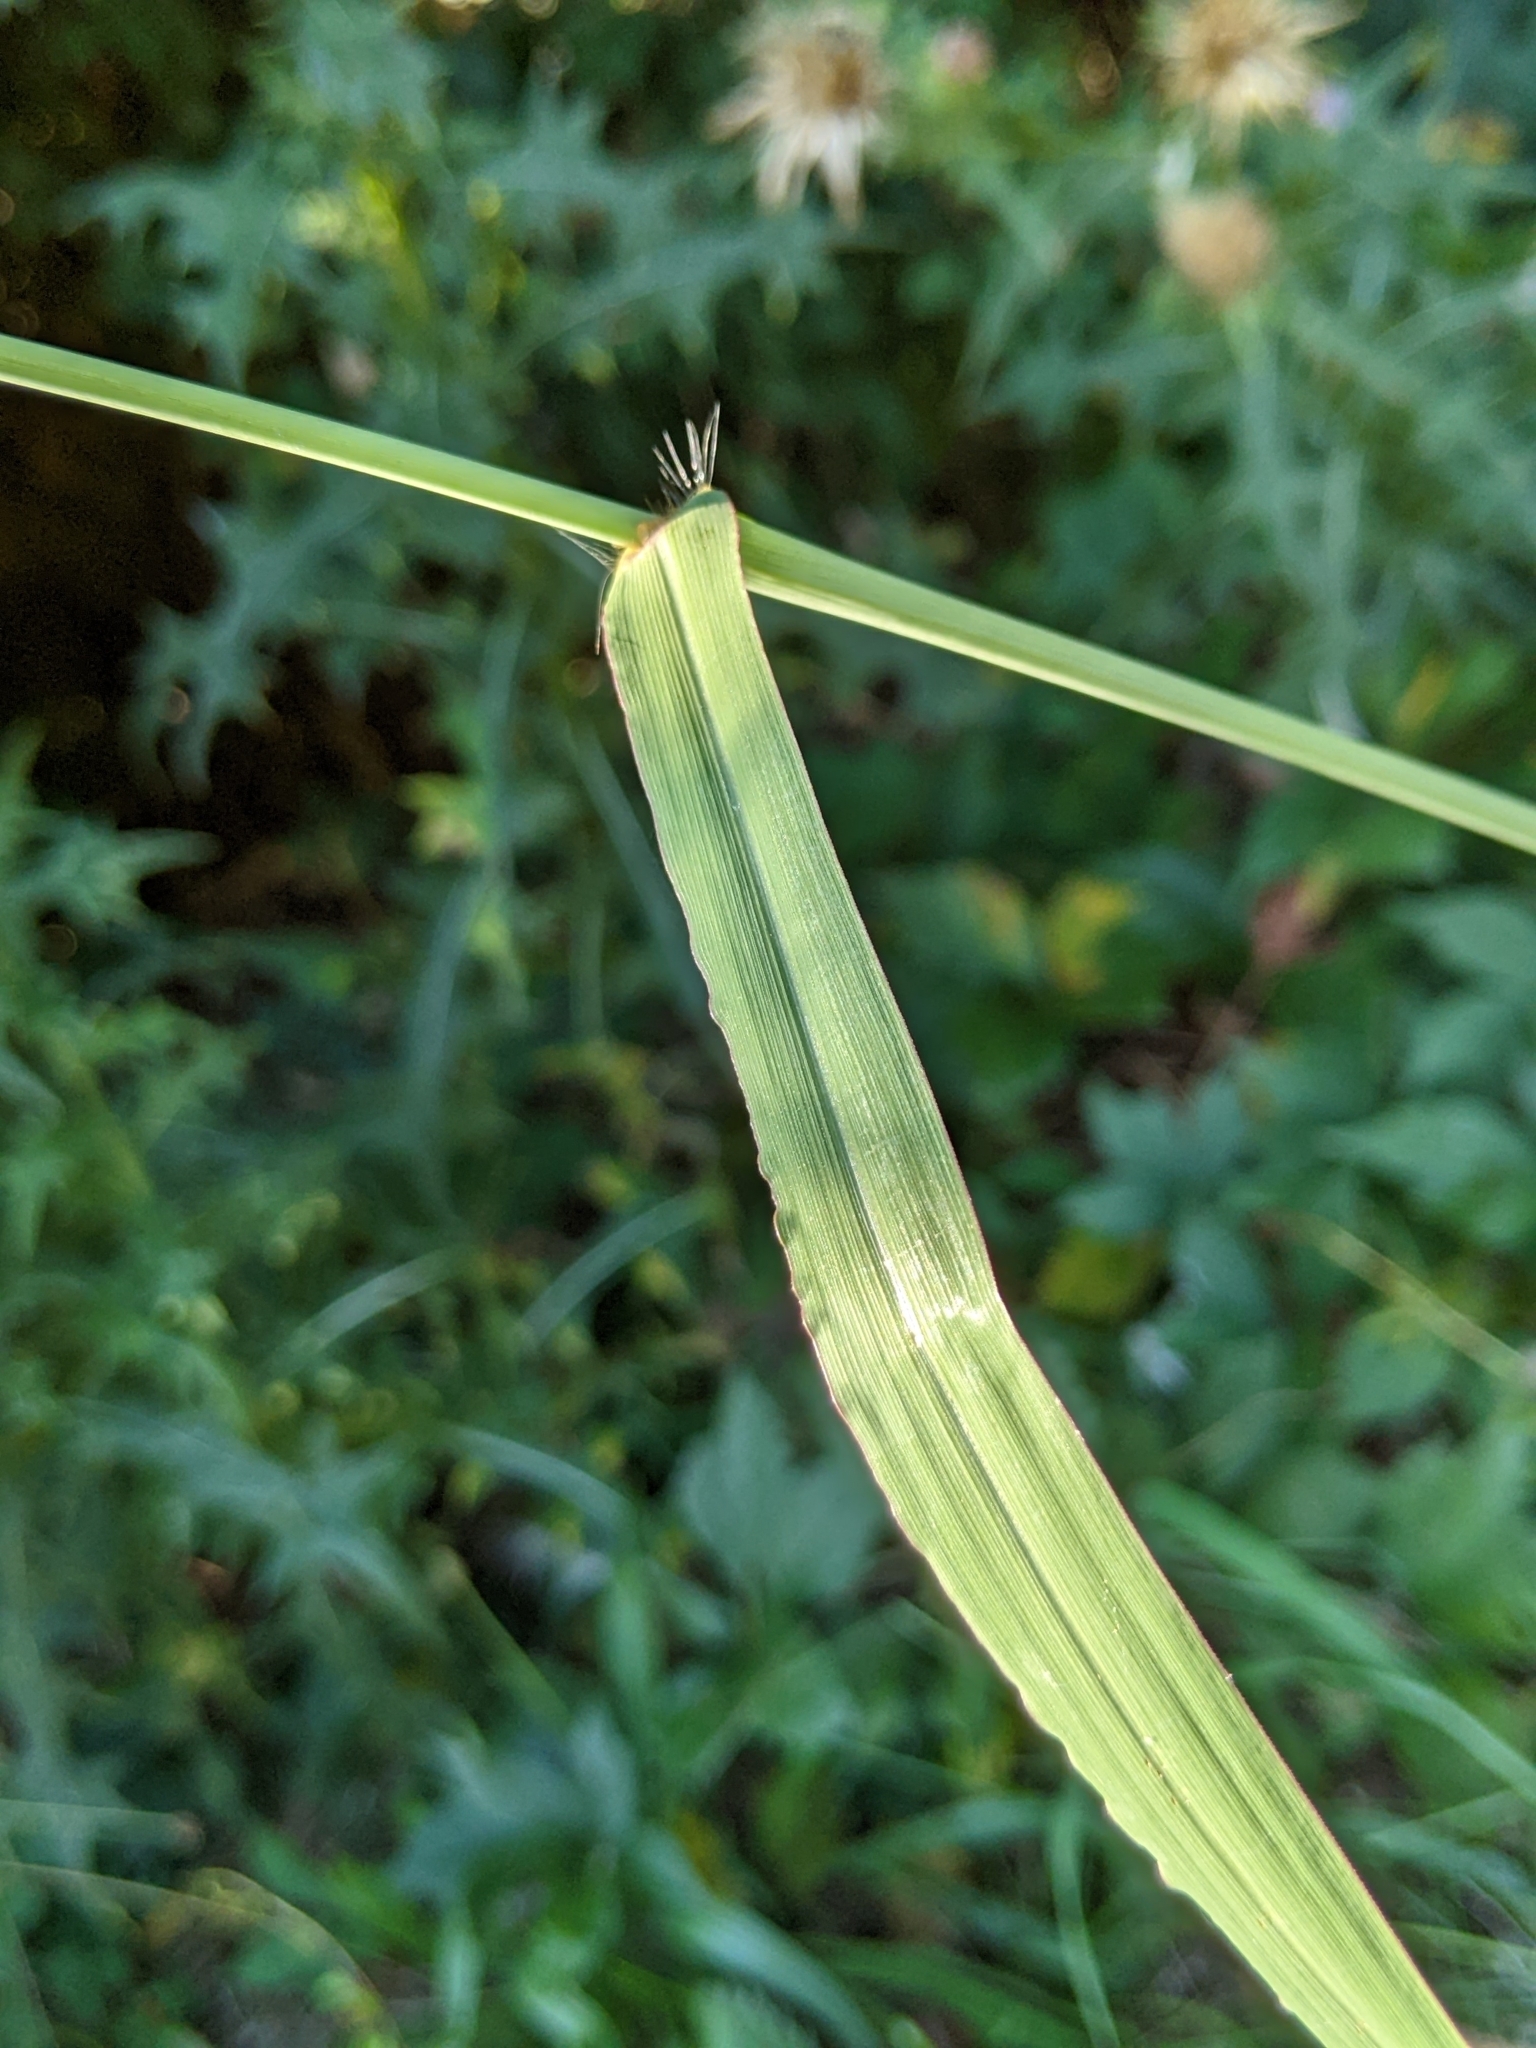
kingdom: Plantae
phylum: Tracheophyta
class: Liliopsida
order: Poales
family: Poaceae
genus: Paspalum
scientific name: Paspalum dilatatum
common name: Dallisgrass
